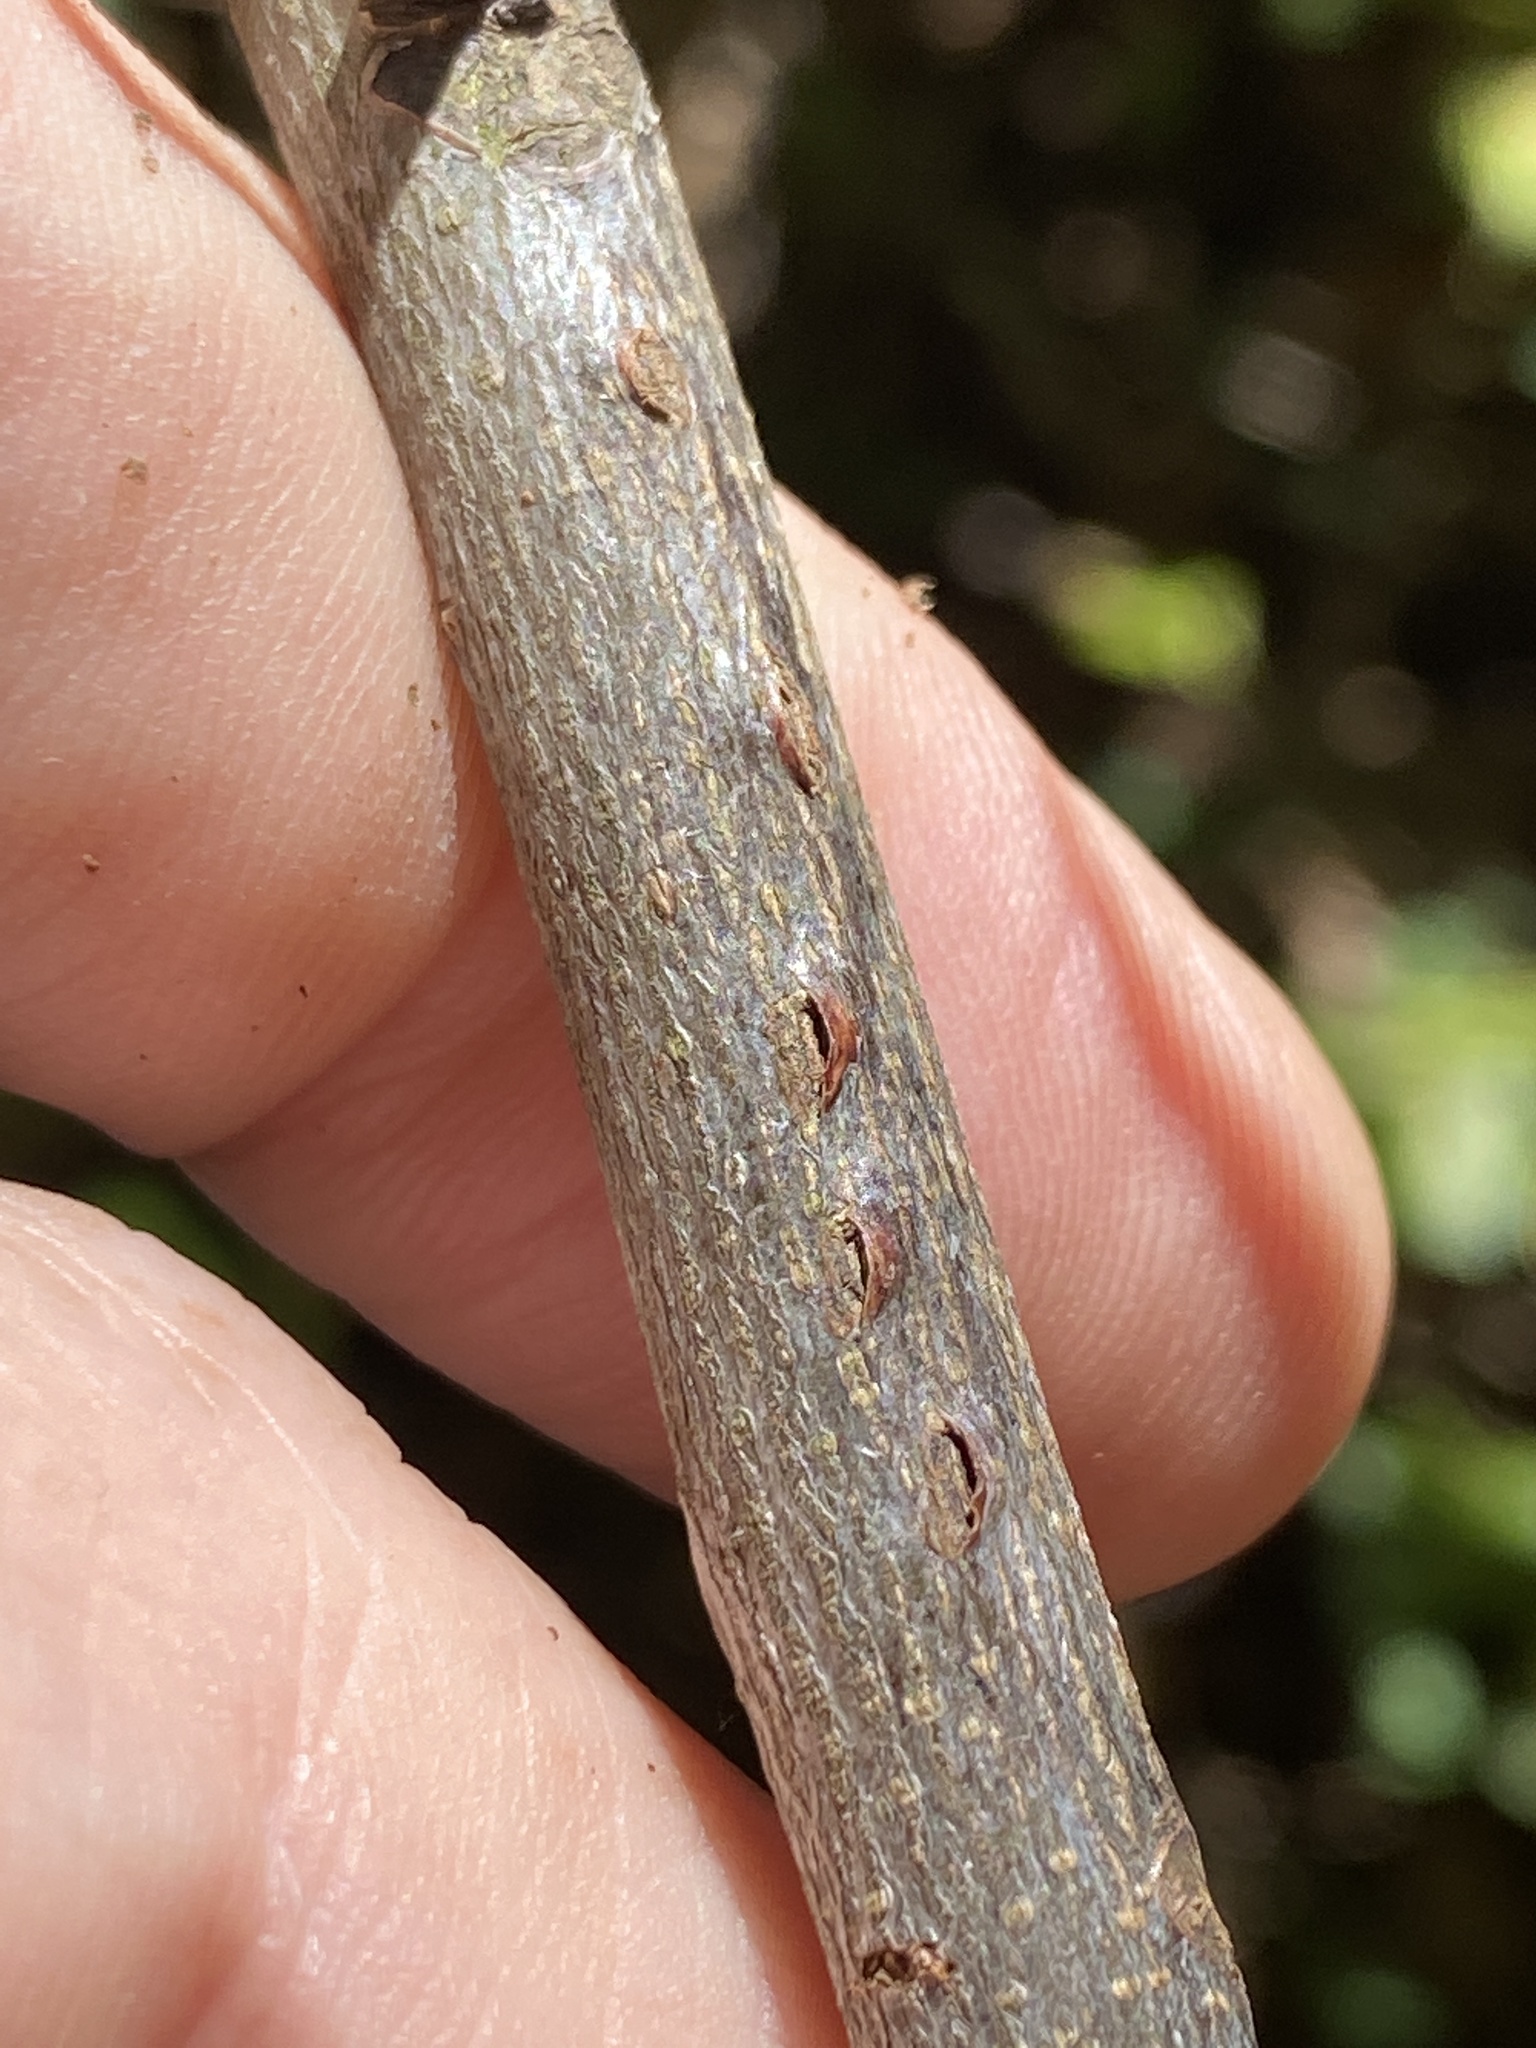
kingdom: Animalia
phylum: Arthropoda
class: Insecta
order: Coleoptera
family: Cerambycidae
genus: Oncideres
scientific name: Oncideres cingulata
